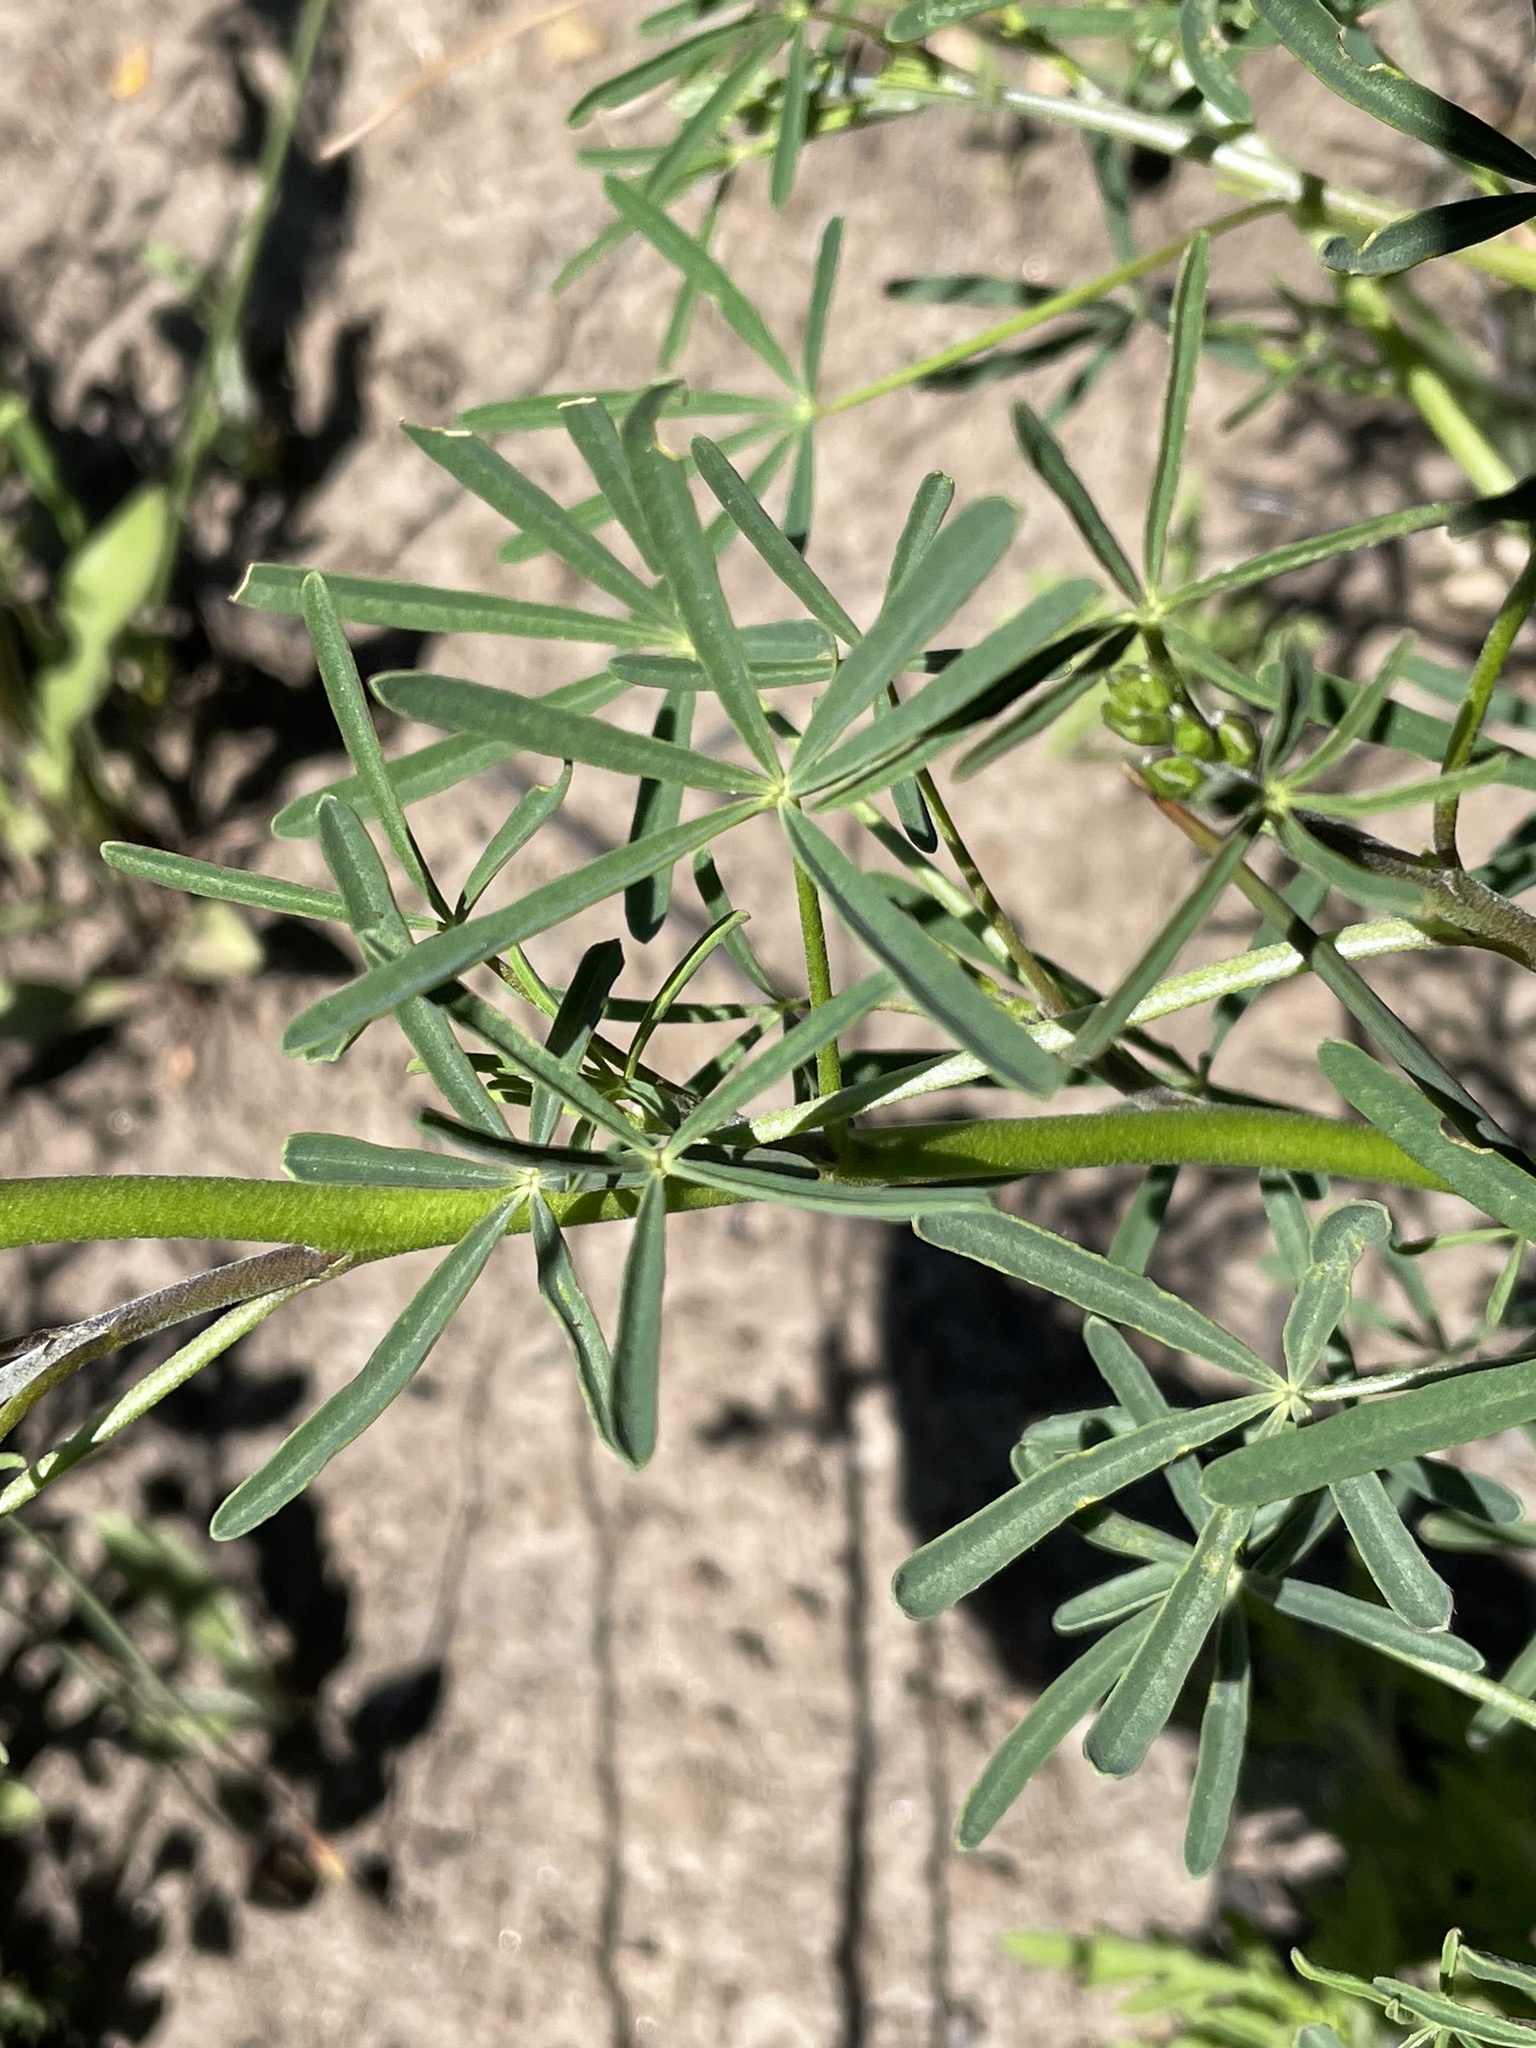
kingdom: Plantae
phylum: Tracheophyta
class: Magnoliopsida
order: Fabales
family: Fabaceae
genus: Lupinus
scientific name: Lupinus truncatus
